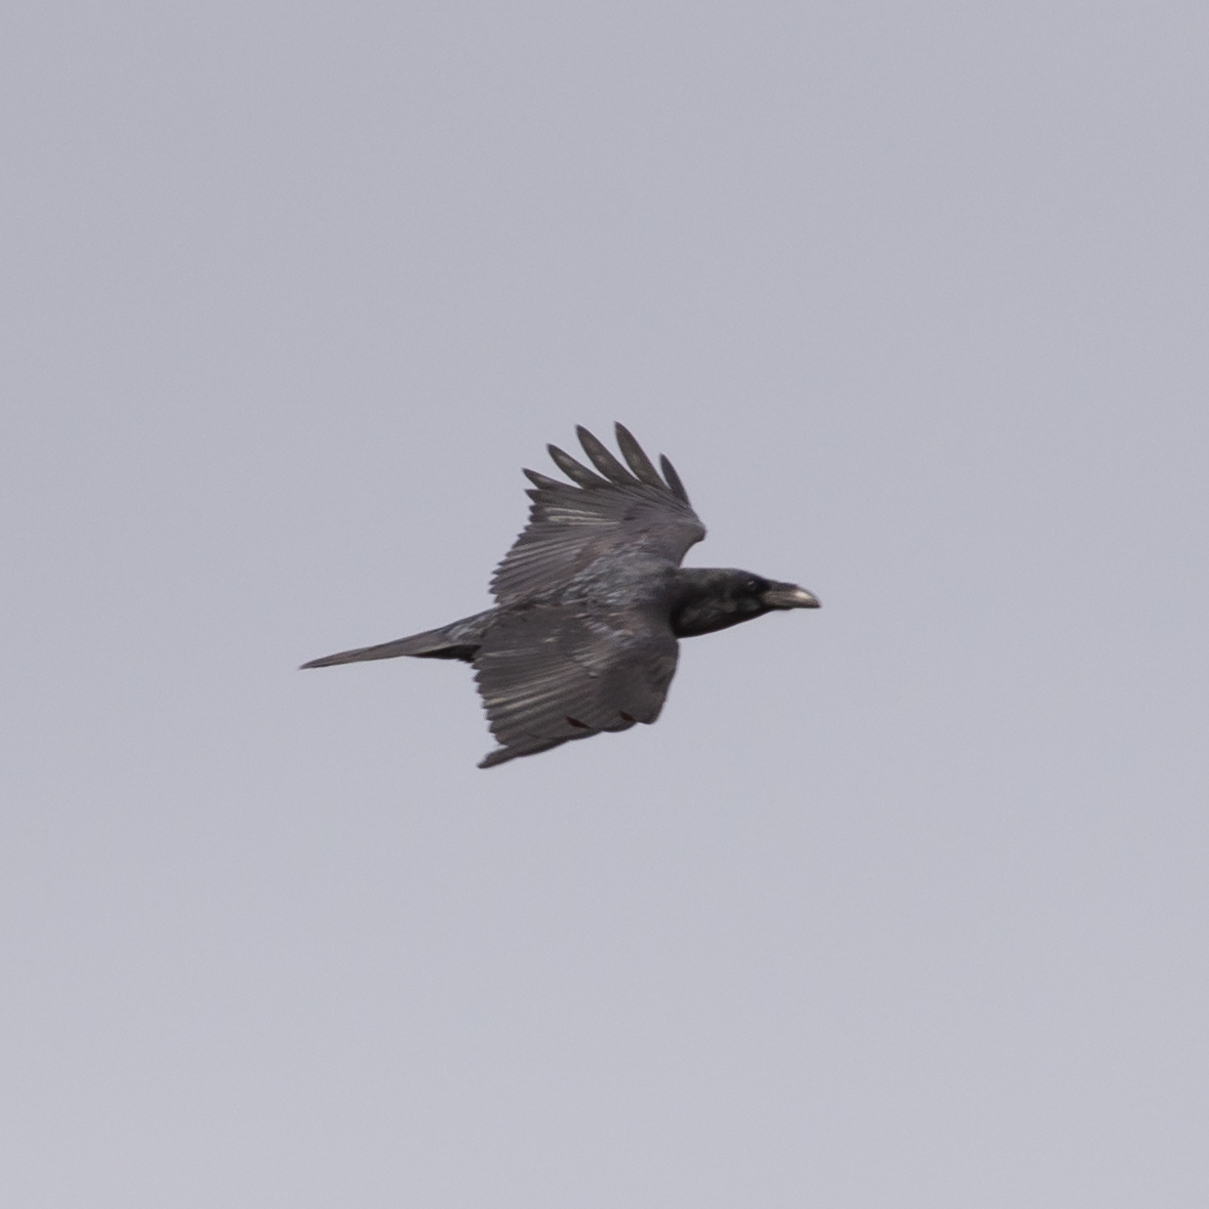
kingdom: Animalia
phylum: Chordata
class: Aves
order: Passeriformes
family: Corvidae
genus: Corvus
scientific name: Corvus corax
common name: Common raven
